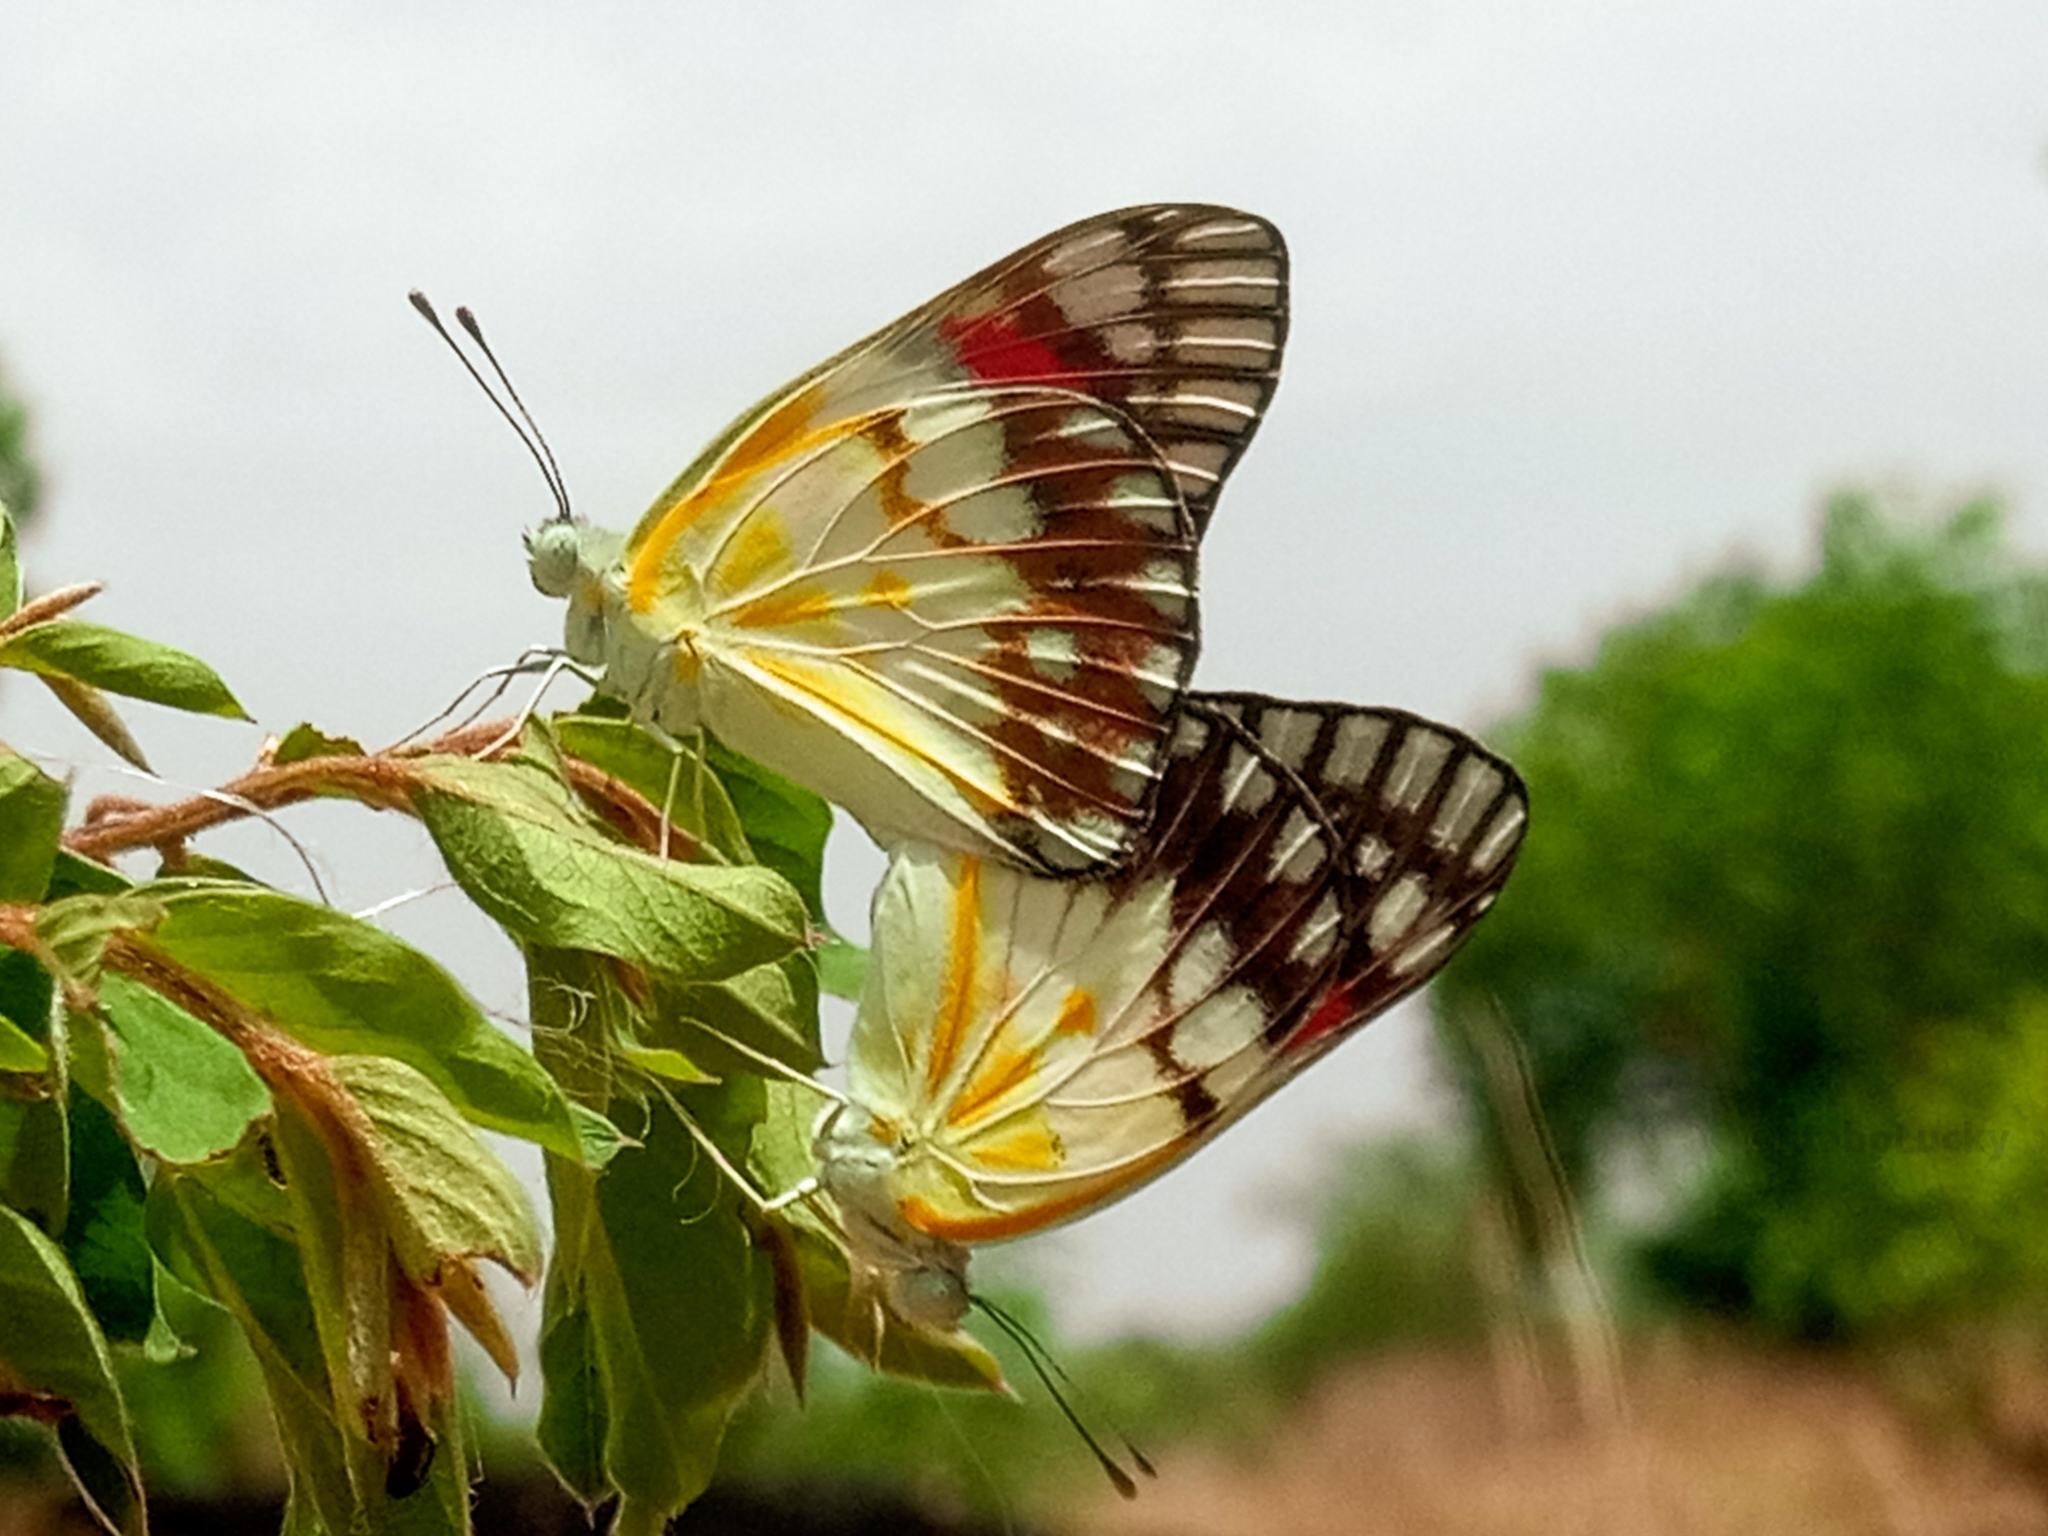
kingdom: Animalia
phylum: Arthropoda
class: Insecta
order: Lepidoptera
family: Pieridae
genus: Colotis
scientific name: Colotis celimene
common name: Lilac tip
